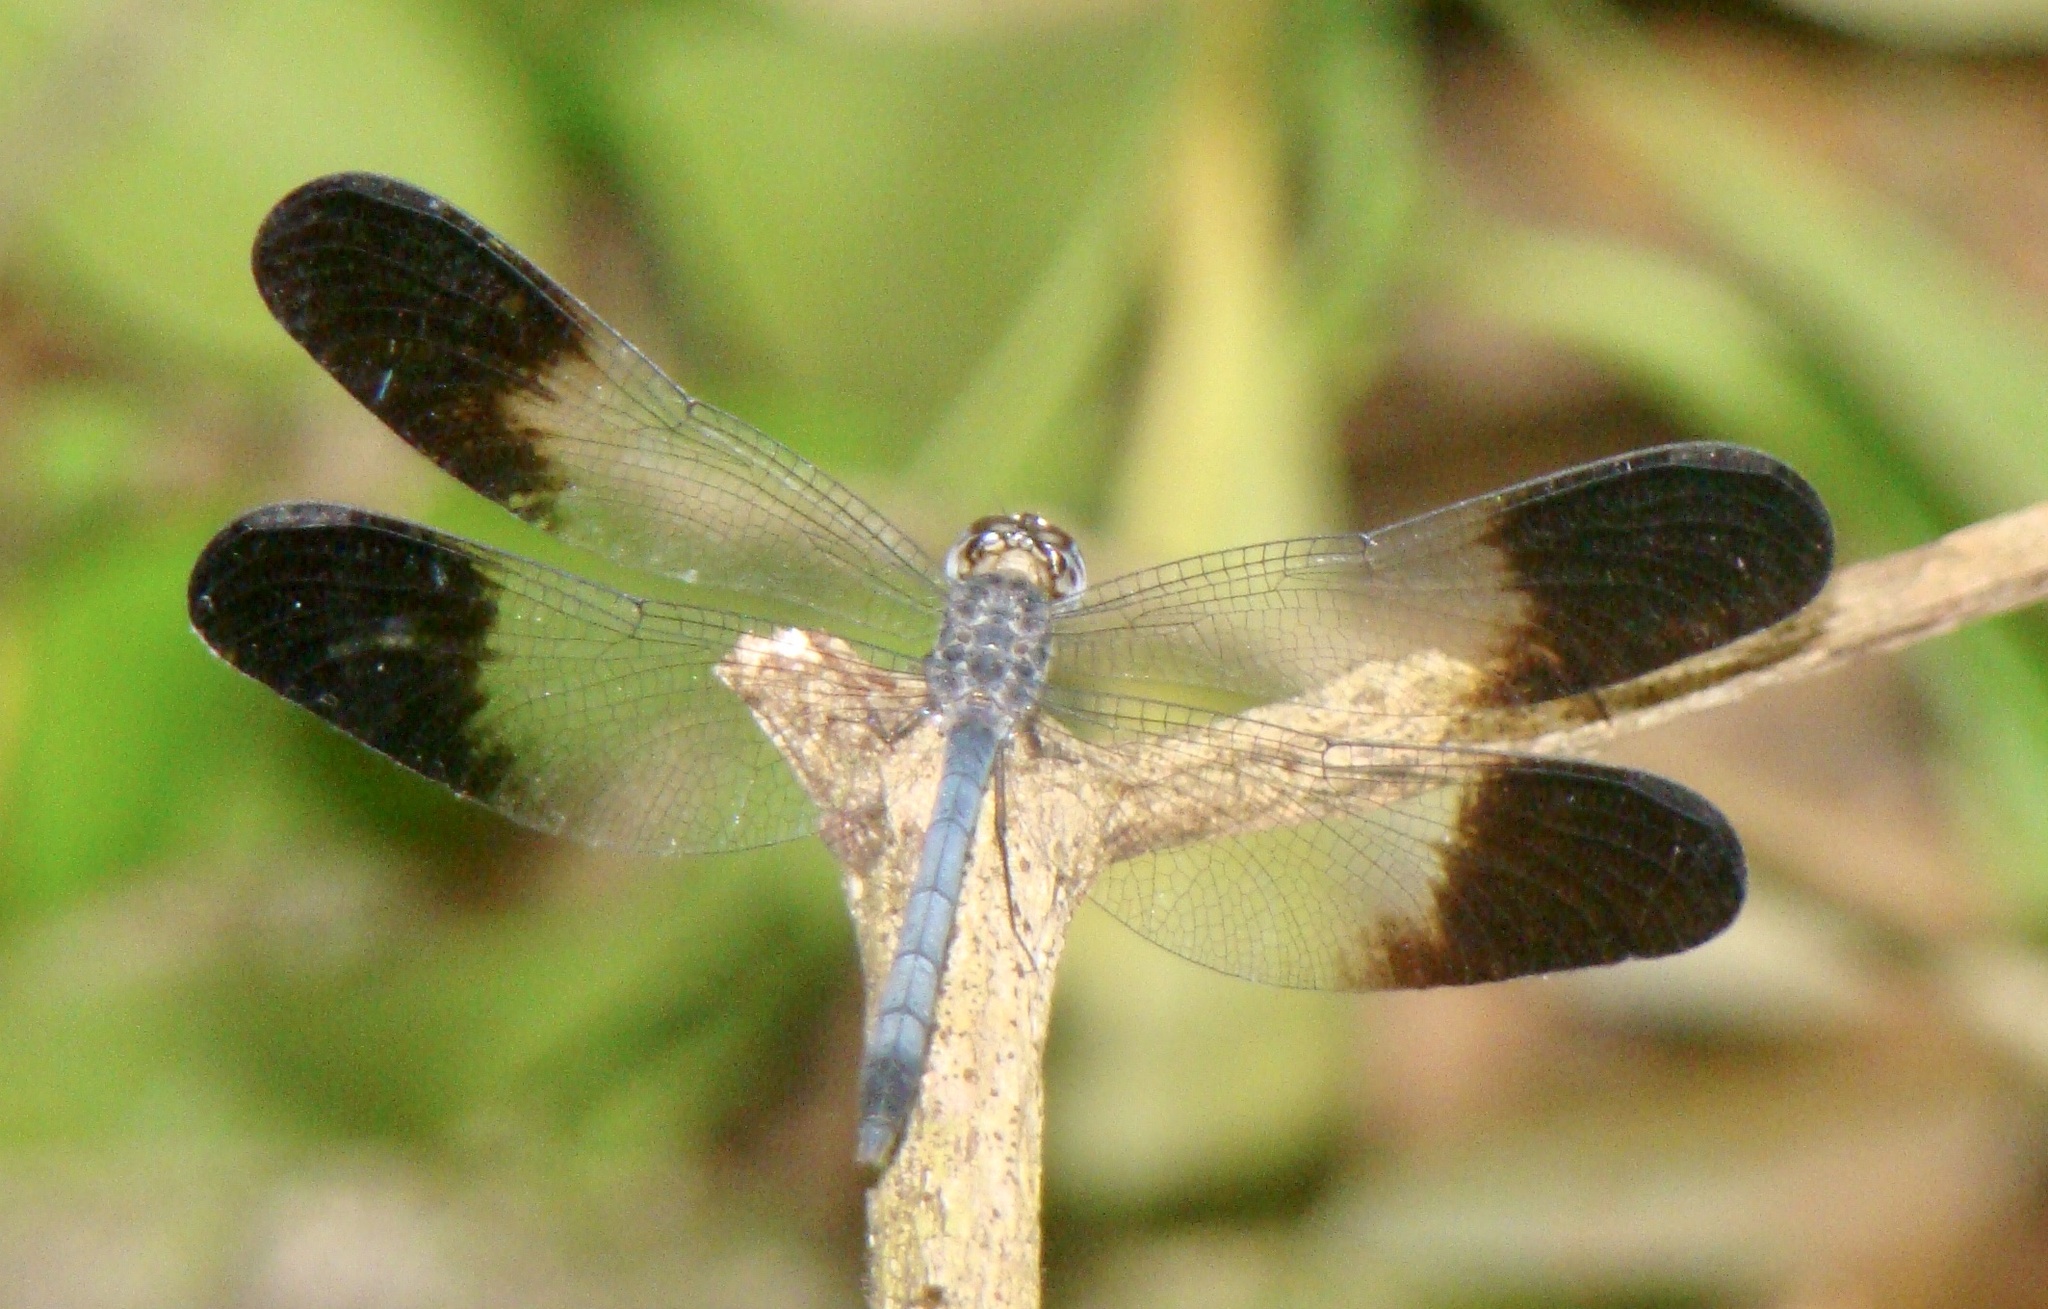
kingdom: Animalia
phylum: Arthropoda
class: Insecta
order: Odonata
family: Libellulidae
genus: Uracis
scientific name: Uracis fastigiata
